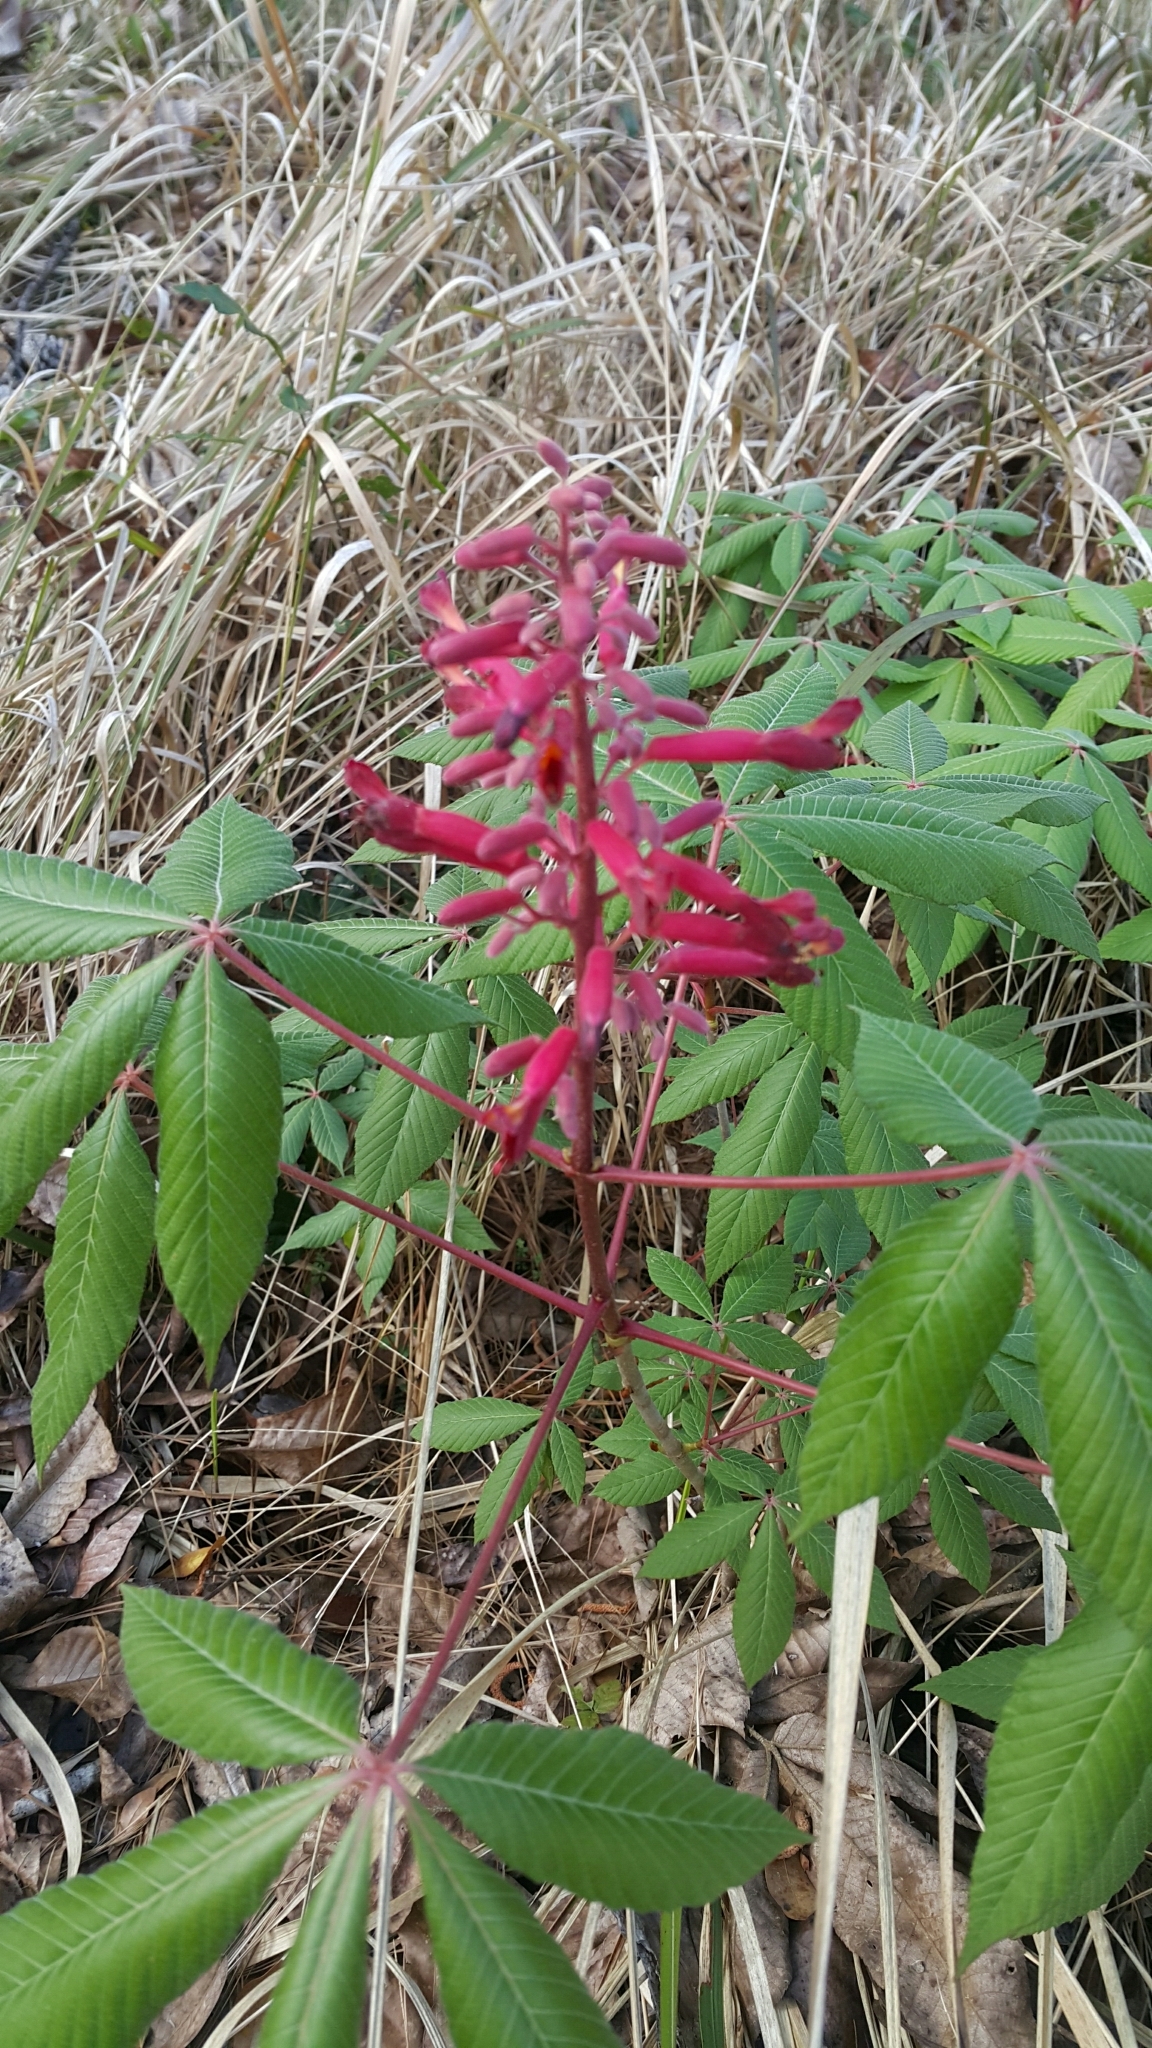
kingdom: Plantae
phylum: Tracheophyta
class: Magnoliopsida
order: Sapindales
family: Sapindaceae
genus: Aesculus
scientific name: Aesculus pavia
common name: Red buckeye
